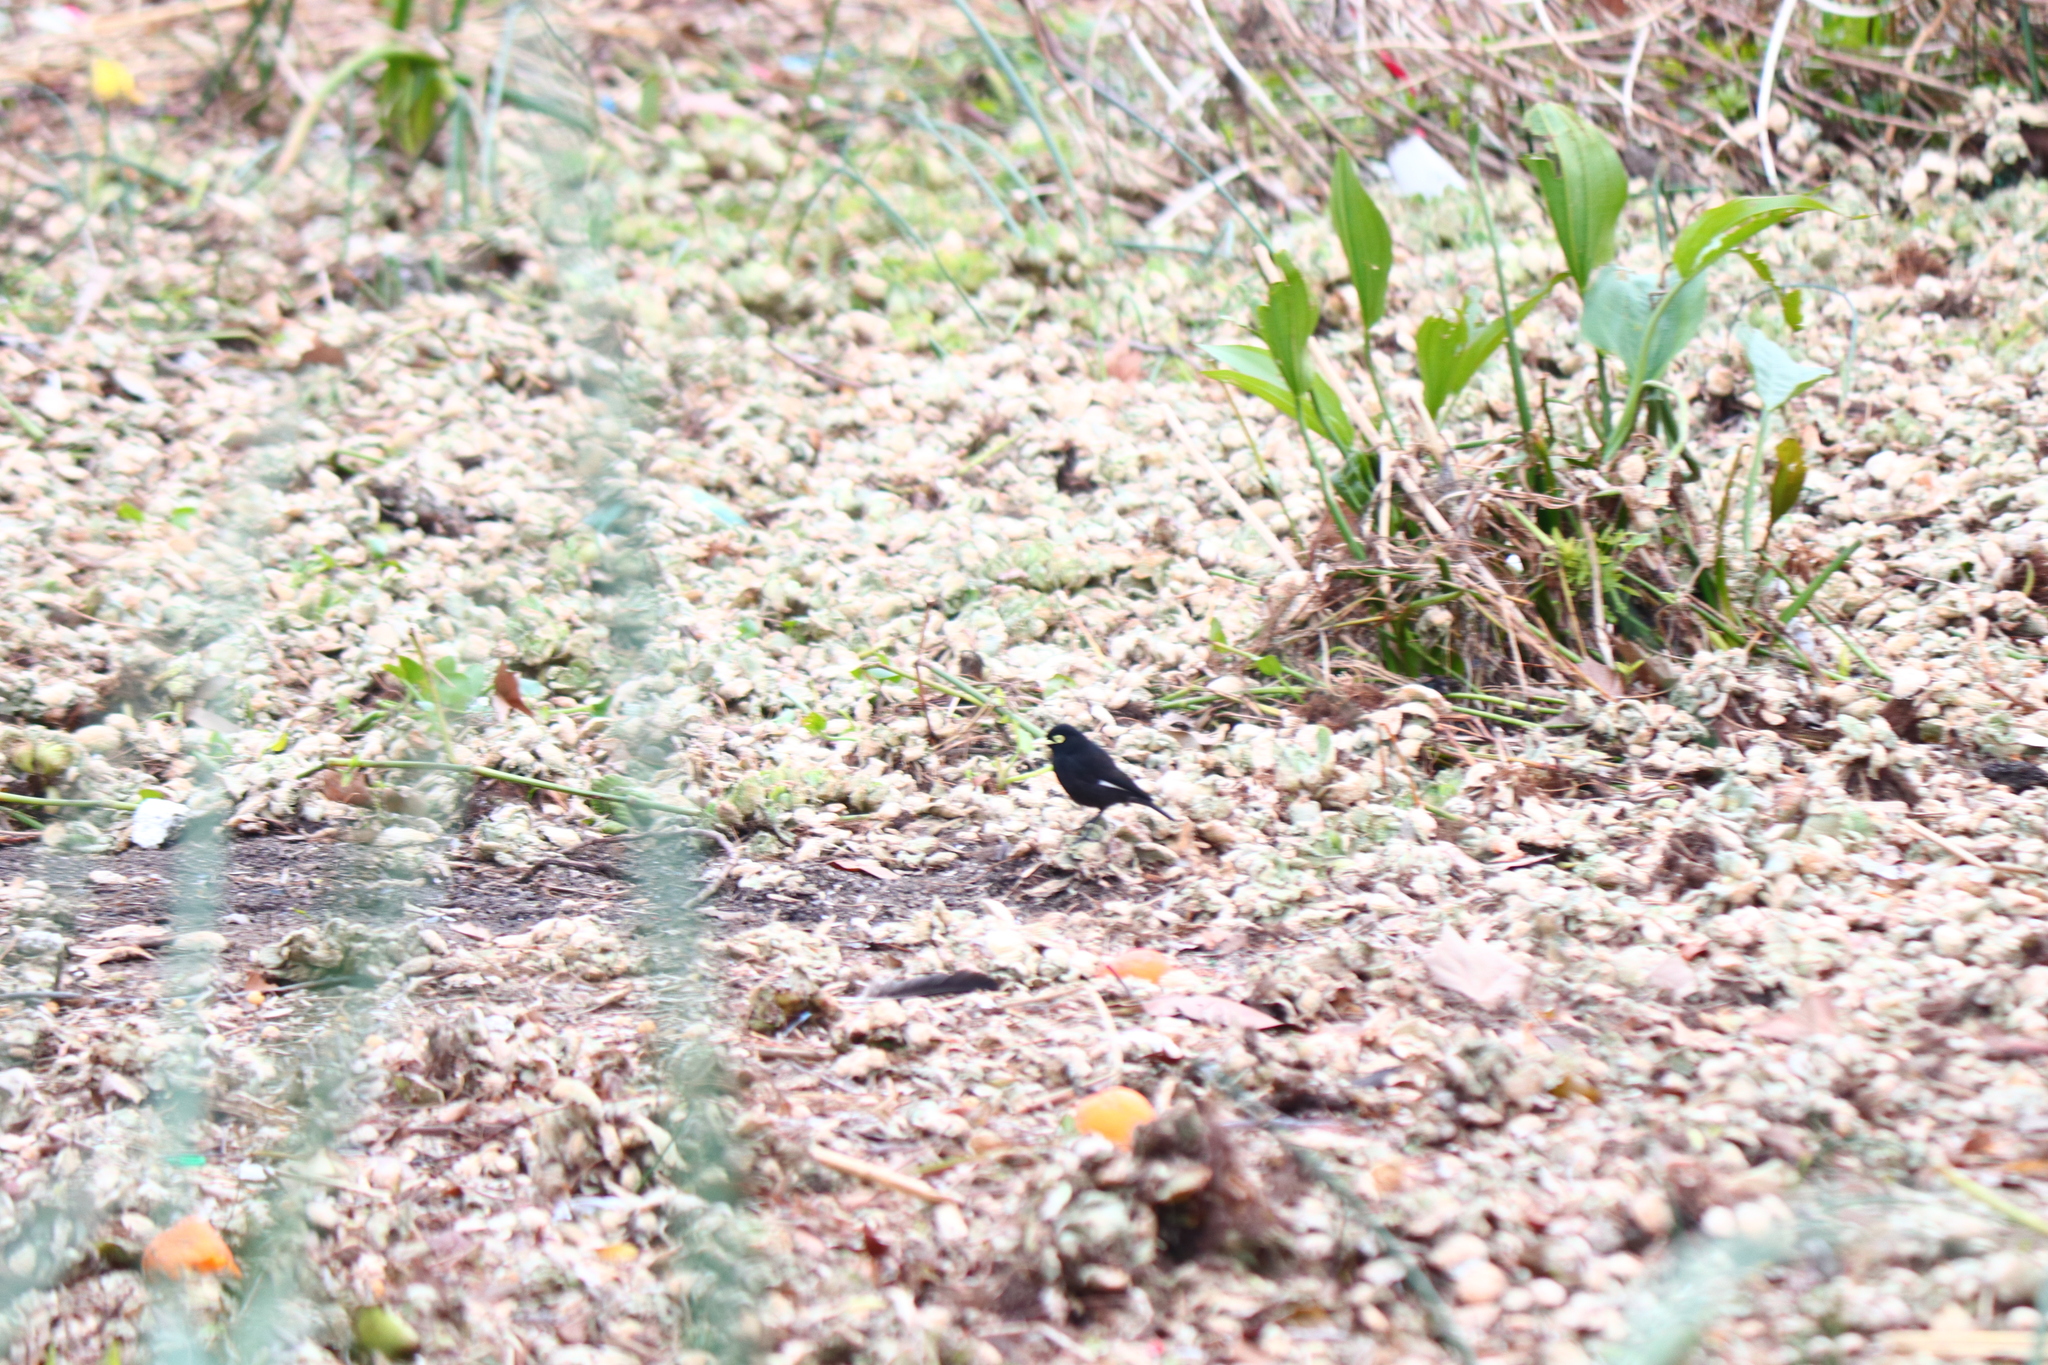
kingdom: Animalia
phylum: Chordata
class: Aves
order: Passeriformes
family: Tyrannidae
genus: Hymenops
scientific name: Hymenops perspicillatus
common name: Spectacled tyrant
